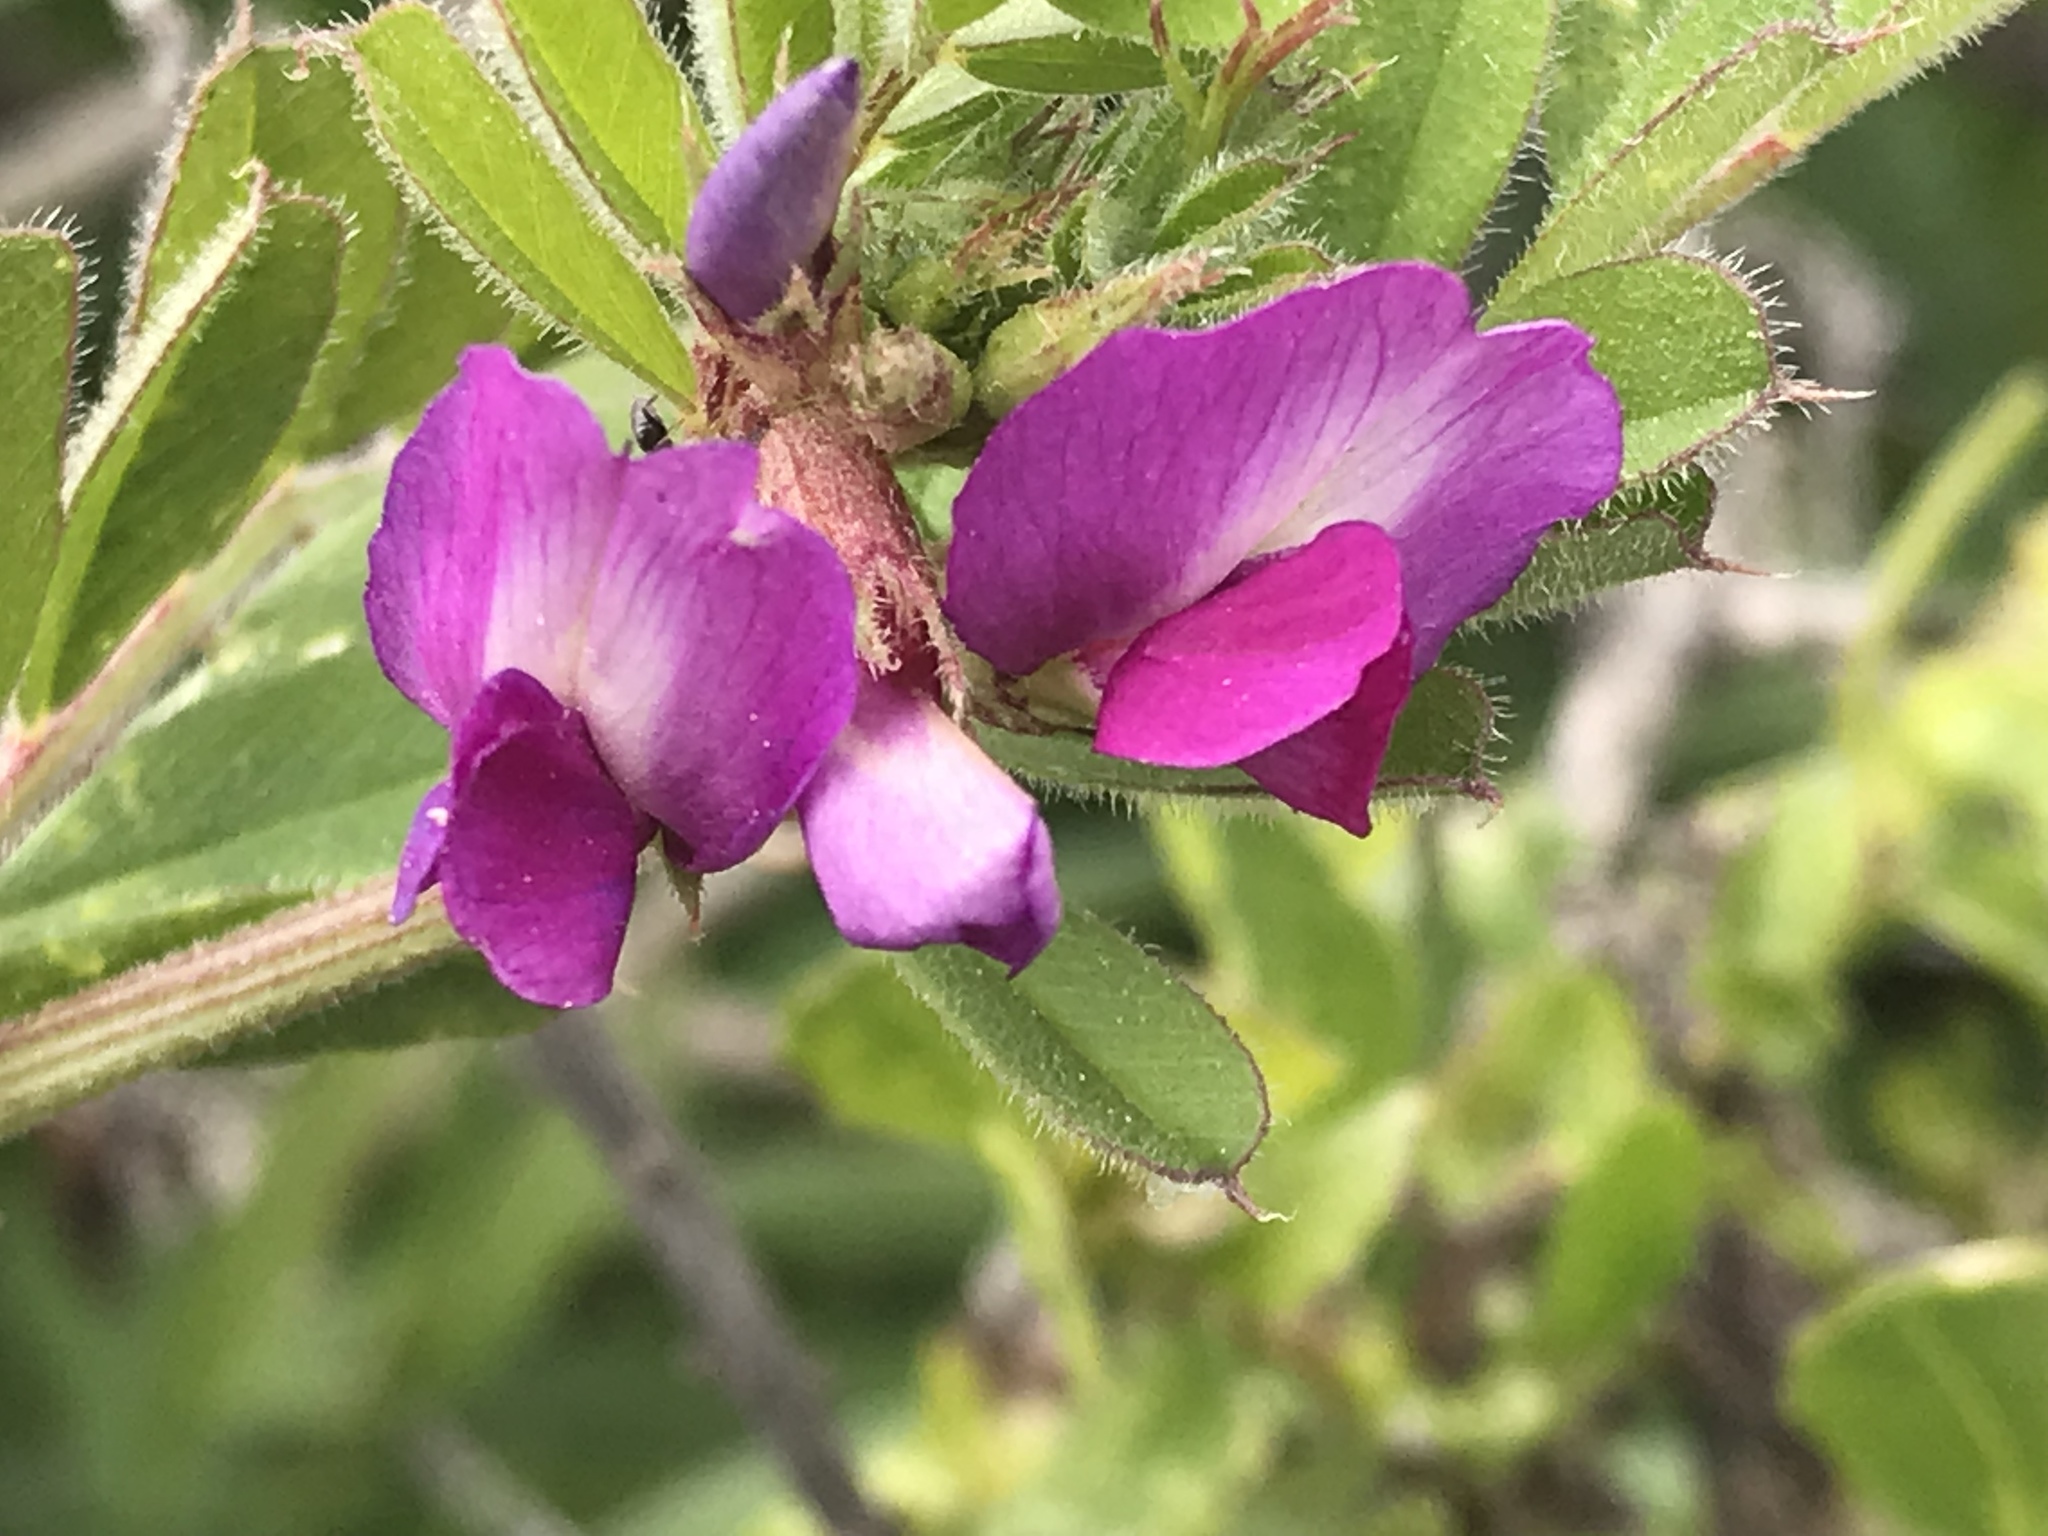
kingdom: Plantae
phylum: Tracheophyta
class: Magnoliopsida
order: Fabales
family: Fabaceae
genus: Vicia
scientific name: Vicia sativa
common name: Garden vetch
